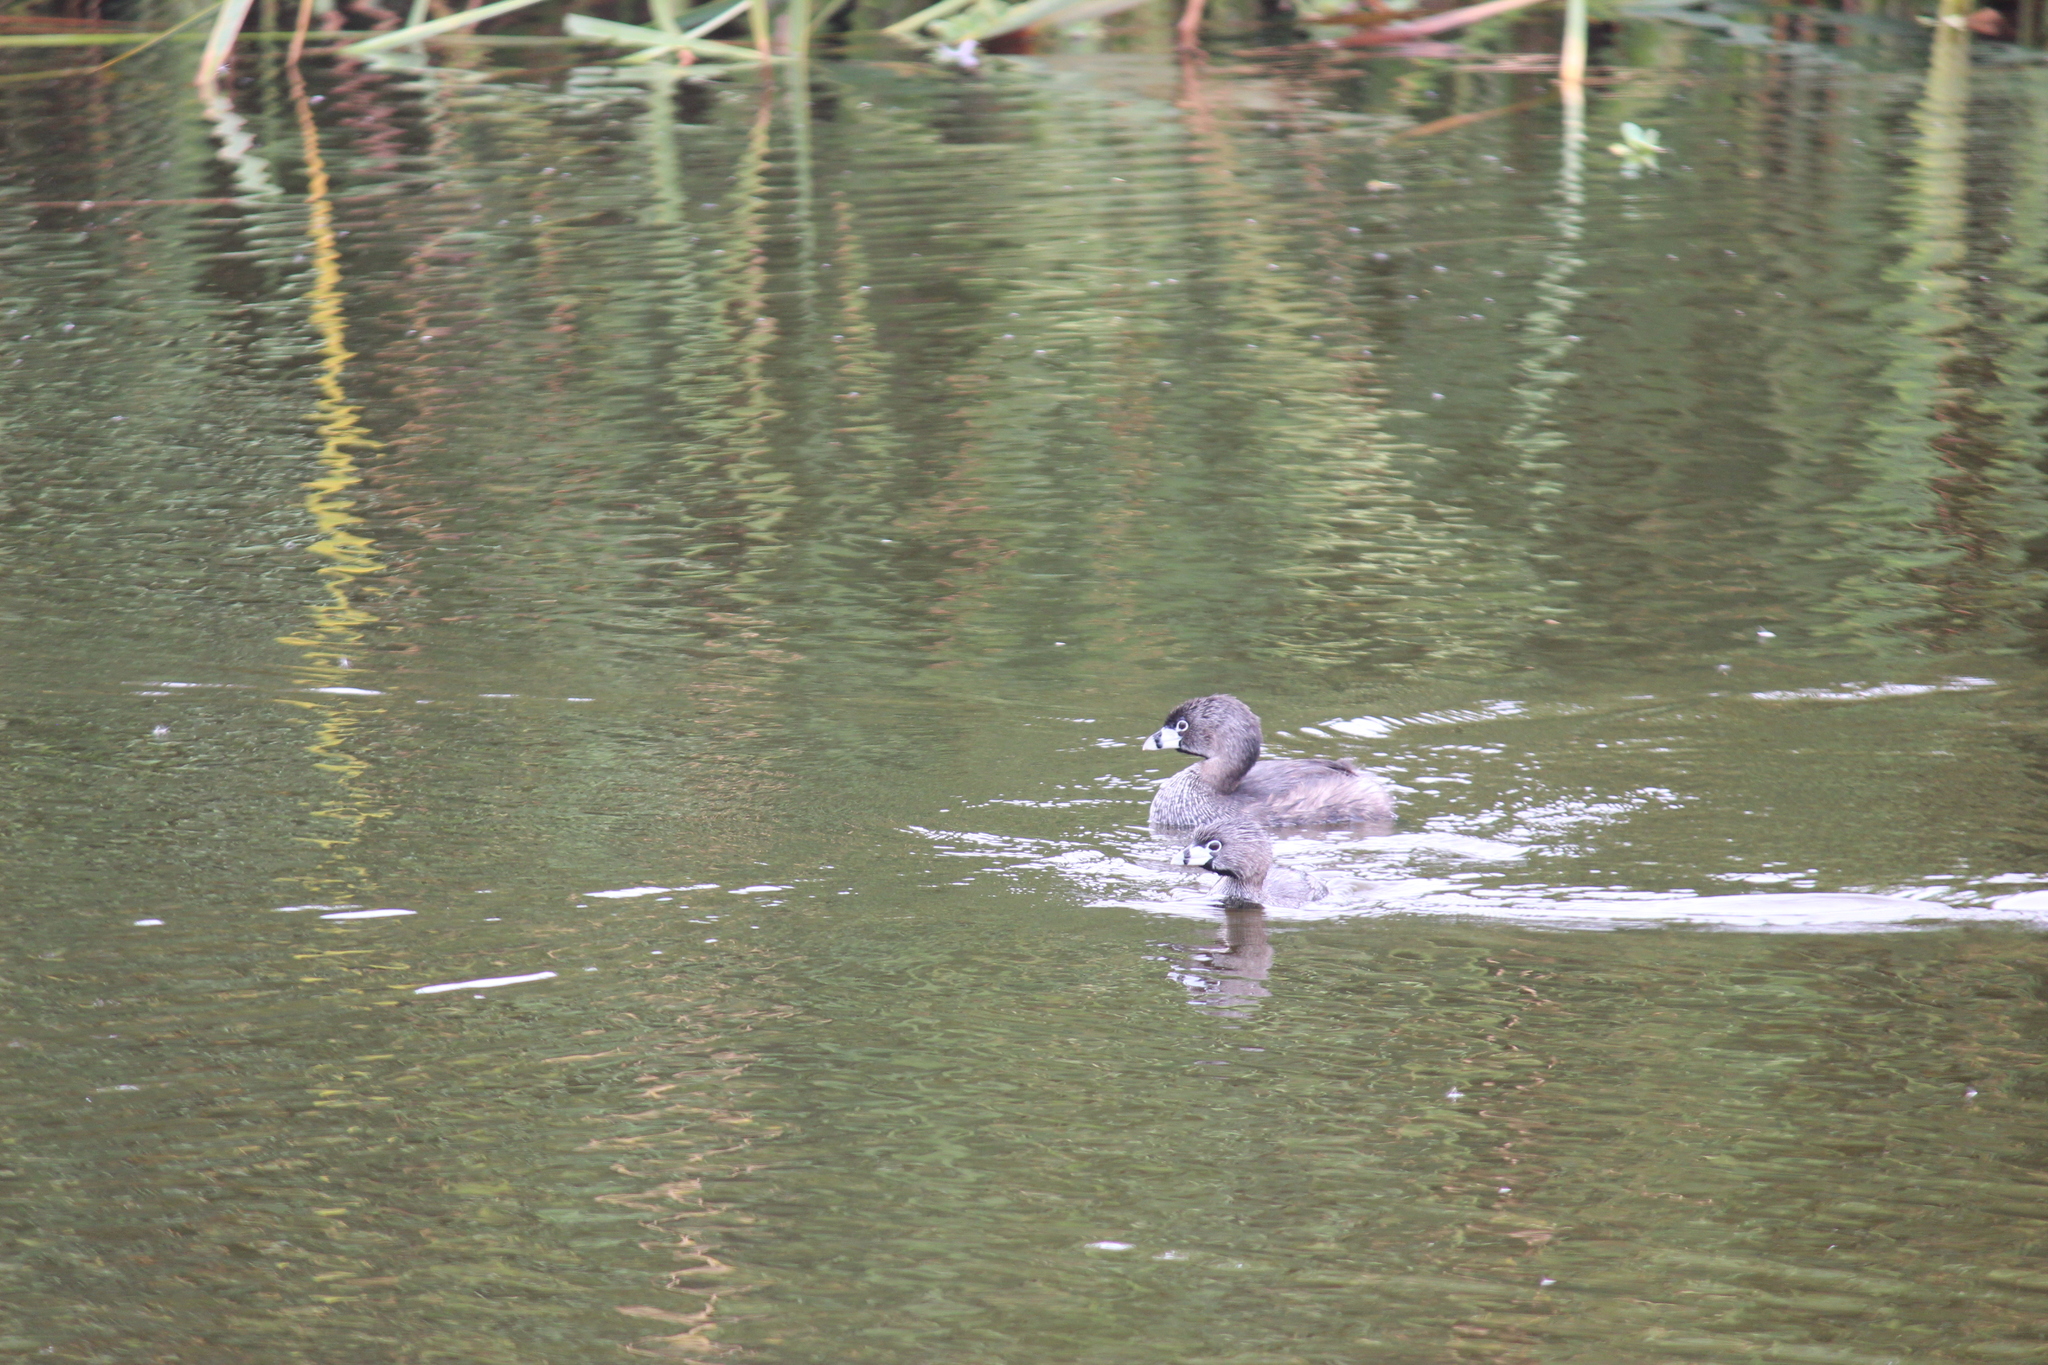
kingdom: Animalia
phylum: Chordata
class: Aves
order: Podicipediformes
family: Podicipedidae
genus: Podilymbus
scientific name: Podilymbus podiceps
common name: Pied-billed grebe
